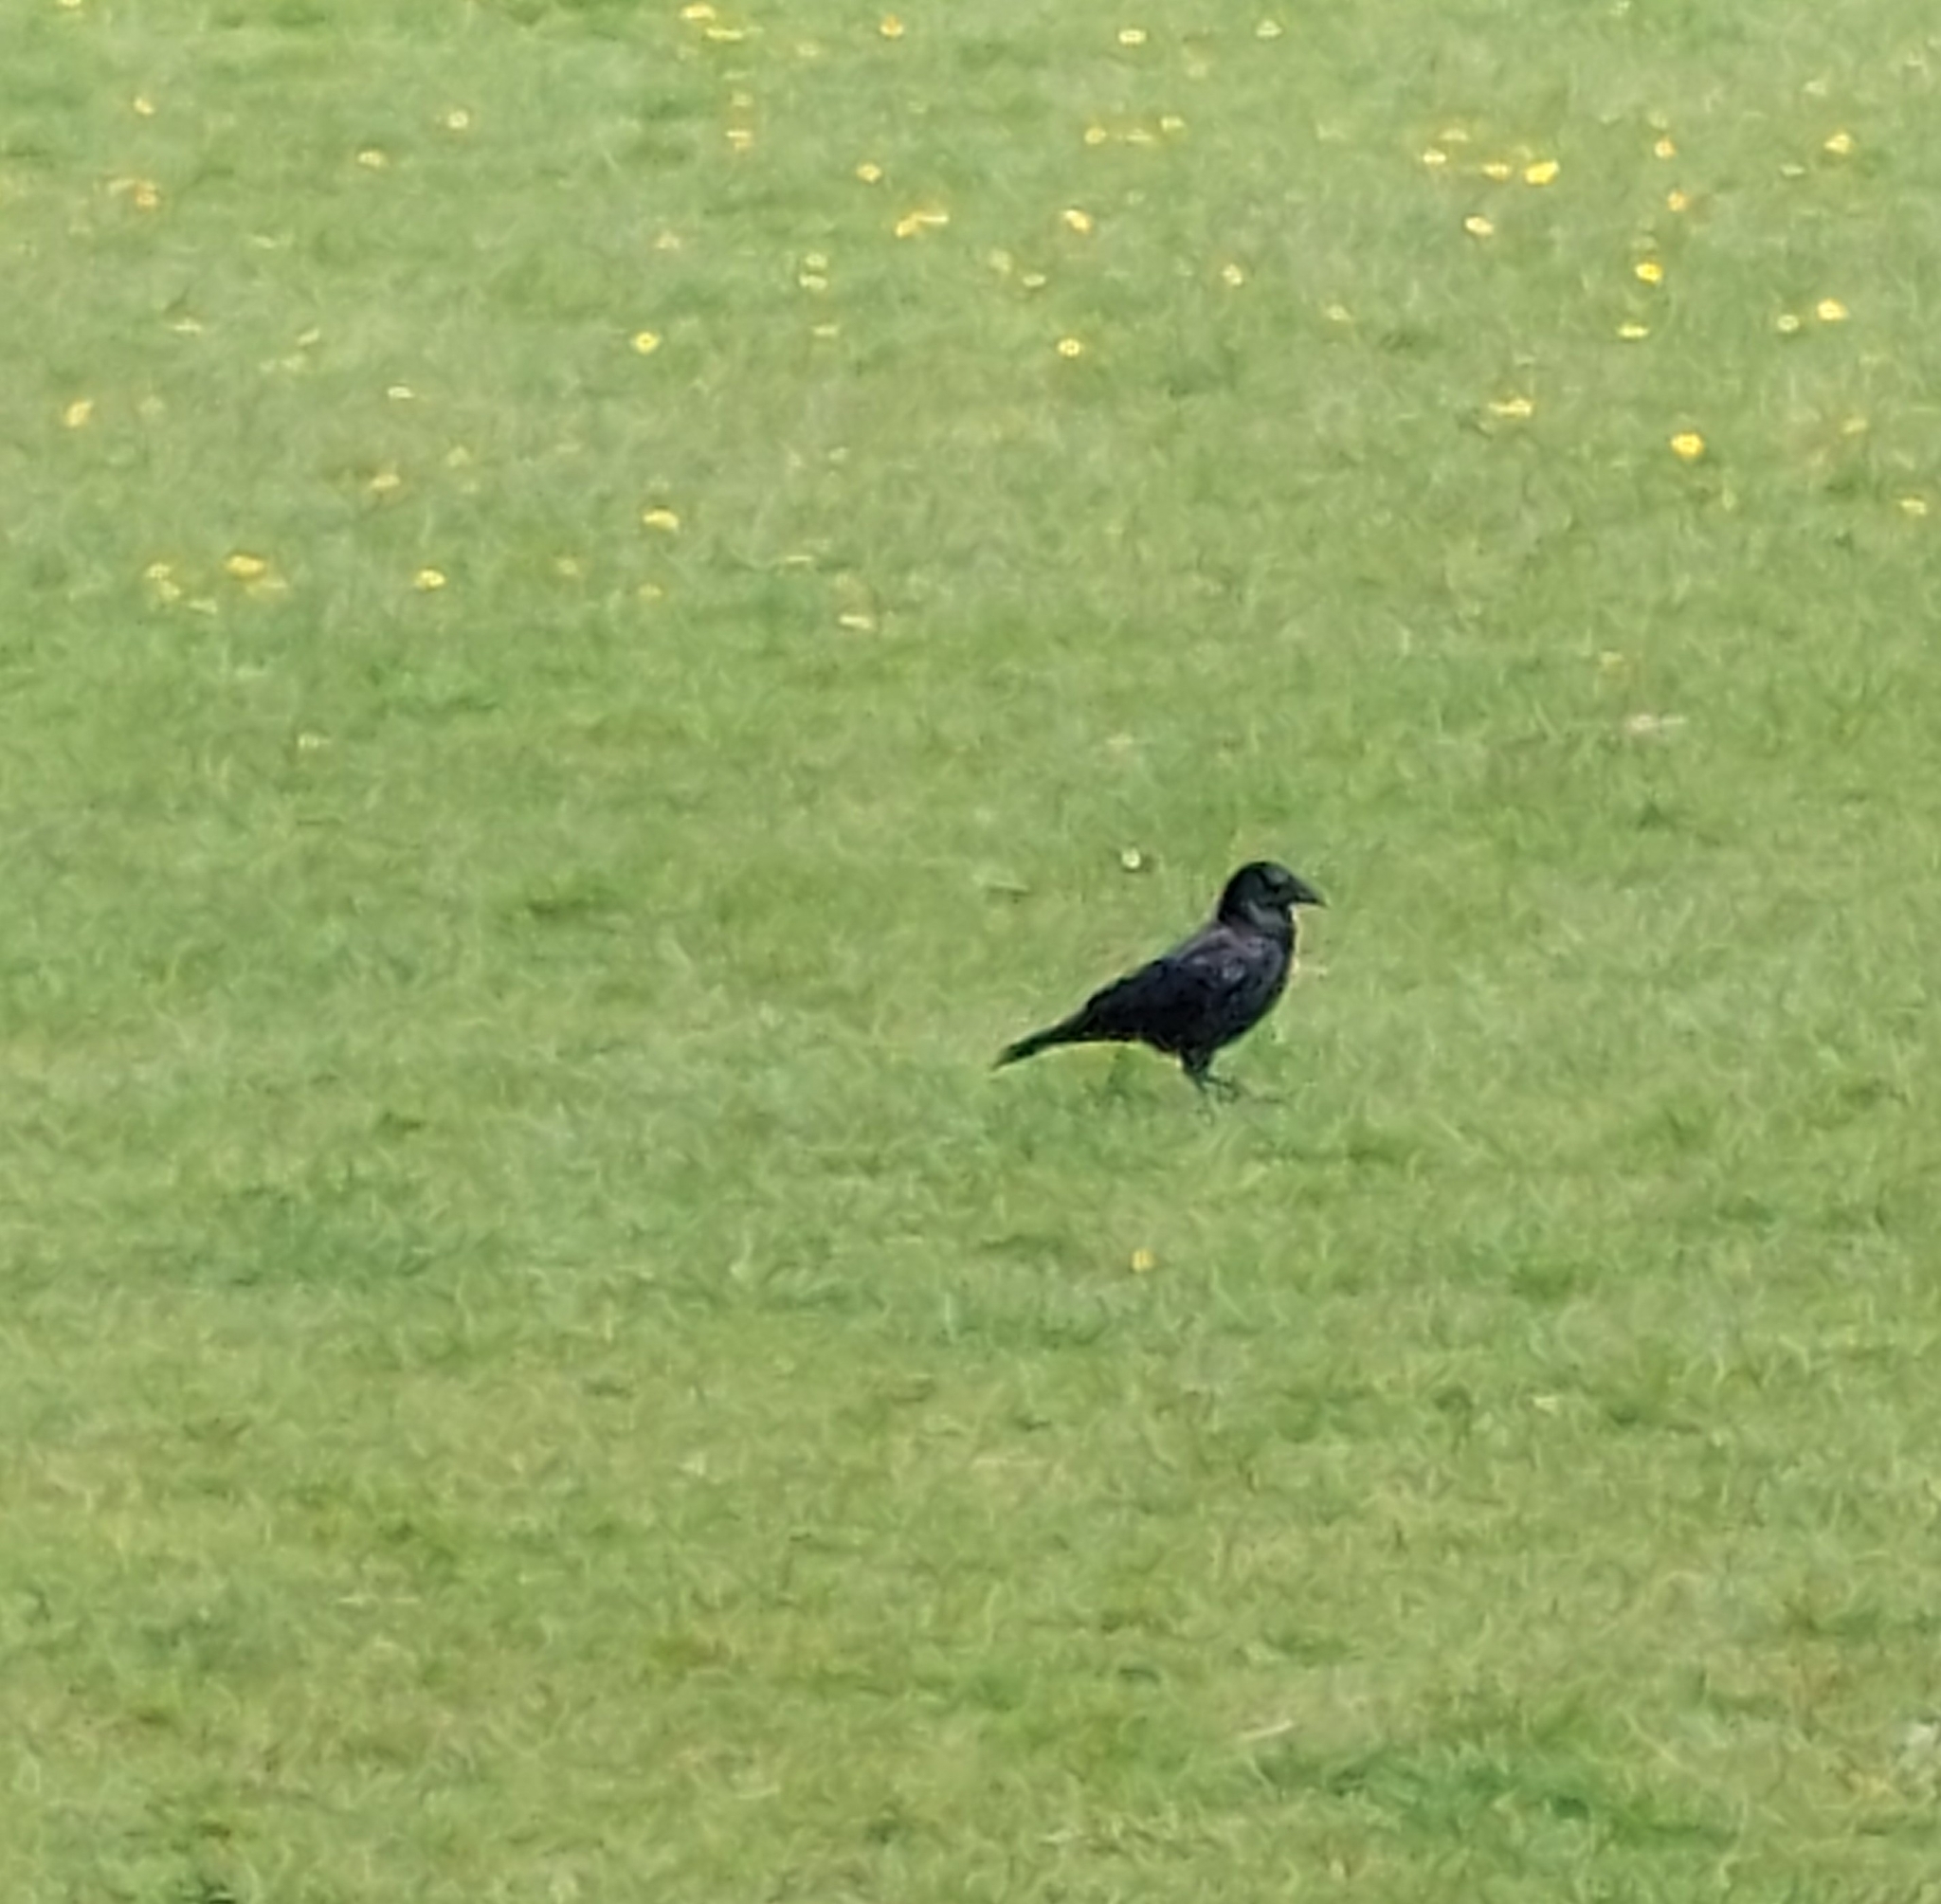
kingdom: Animalia
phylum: Chordata
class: Aves
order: Passeriformes
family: Corvidae
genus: Corvus
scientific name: Corvus corone
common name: Carrion crow
